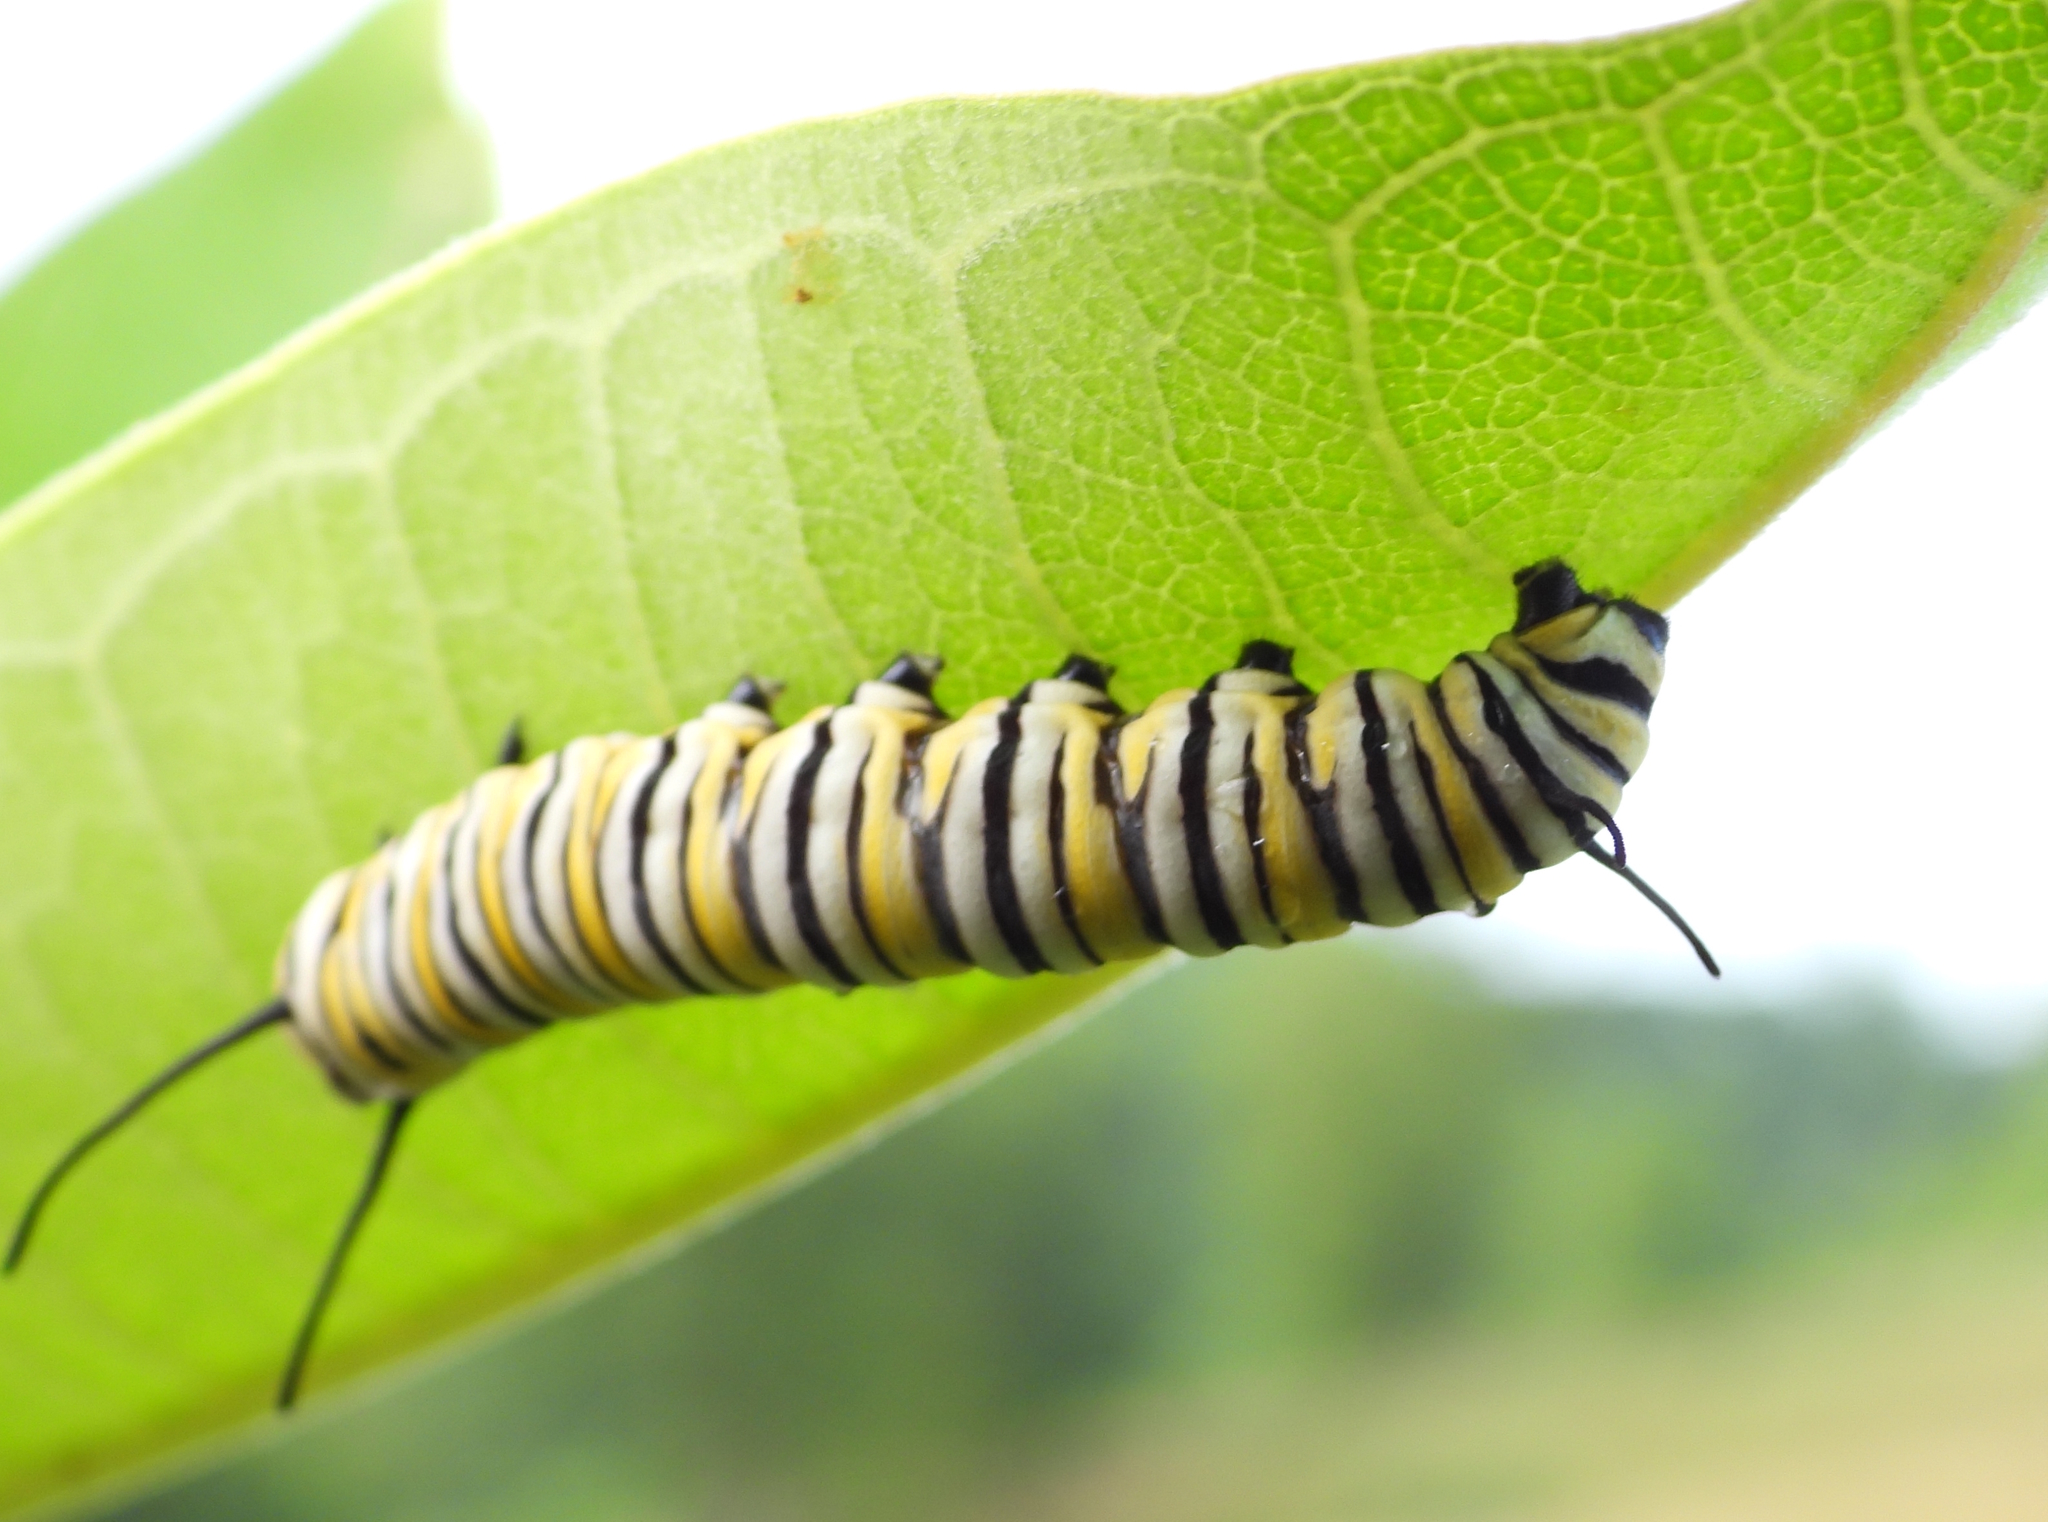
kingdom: Animalia
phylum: Arthropoda
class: Insecta
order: Lepidoptera
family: Nymphalidae
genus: Danaus
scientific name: Danaus plexippus
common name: Monarch
